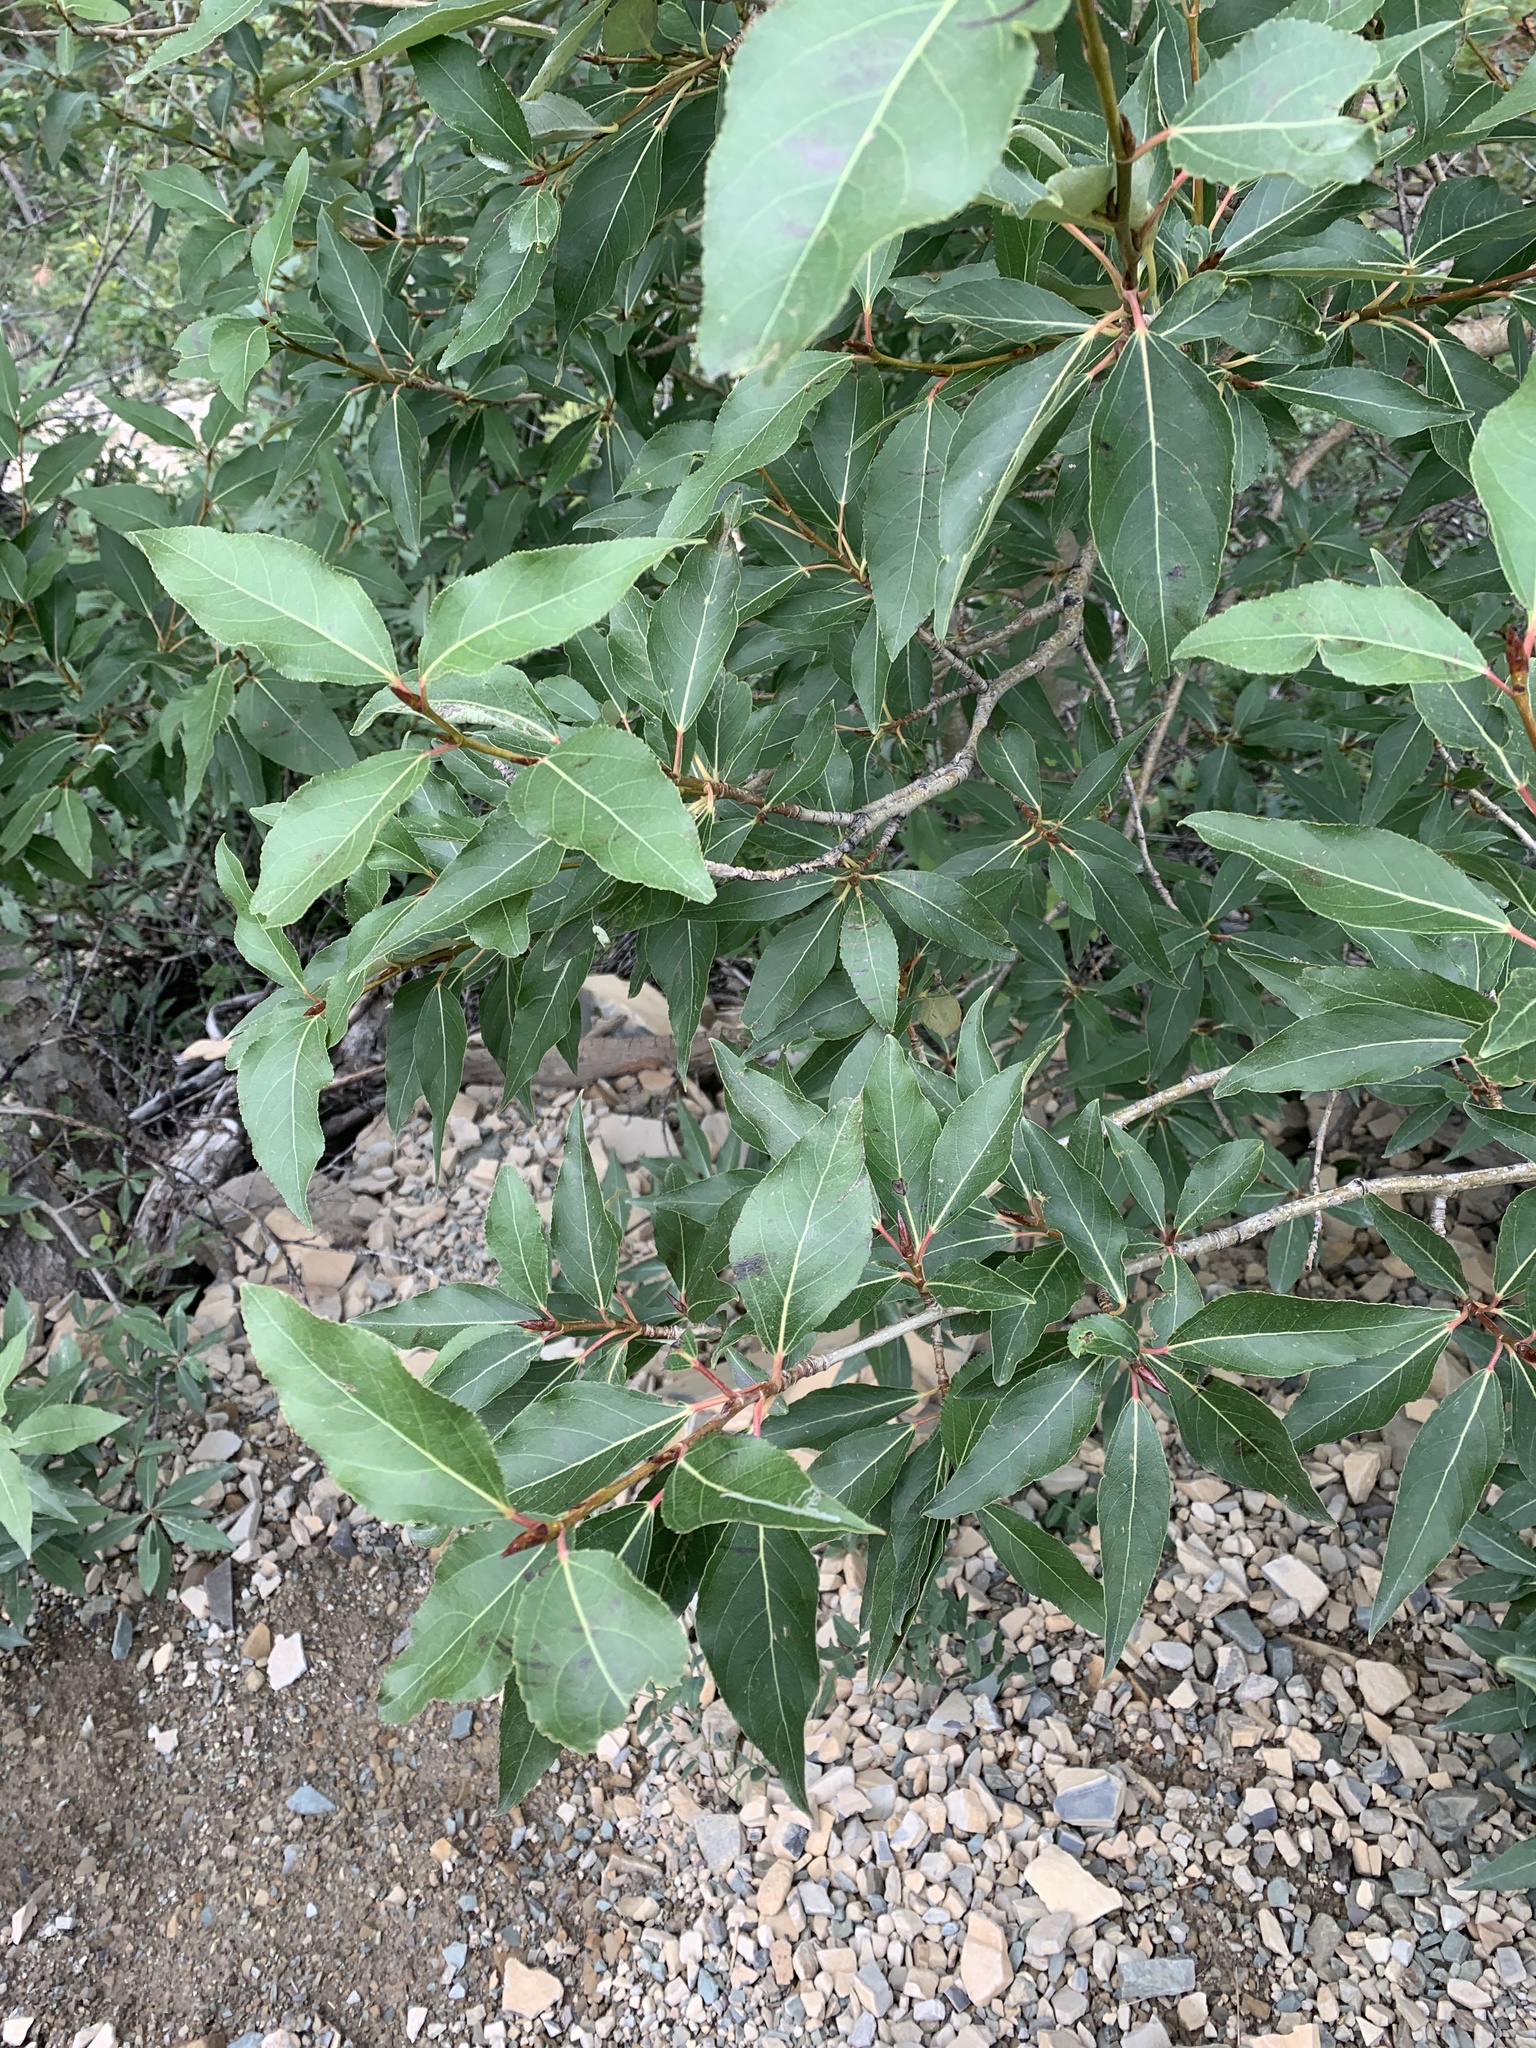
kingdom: Plantae
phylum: Tracheophyta
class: Magnoliopsida
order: Malpighiales
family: Salicaceae
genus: Populus
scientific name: Populus angustifolia
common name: Willow cottonwood
